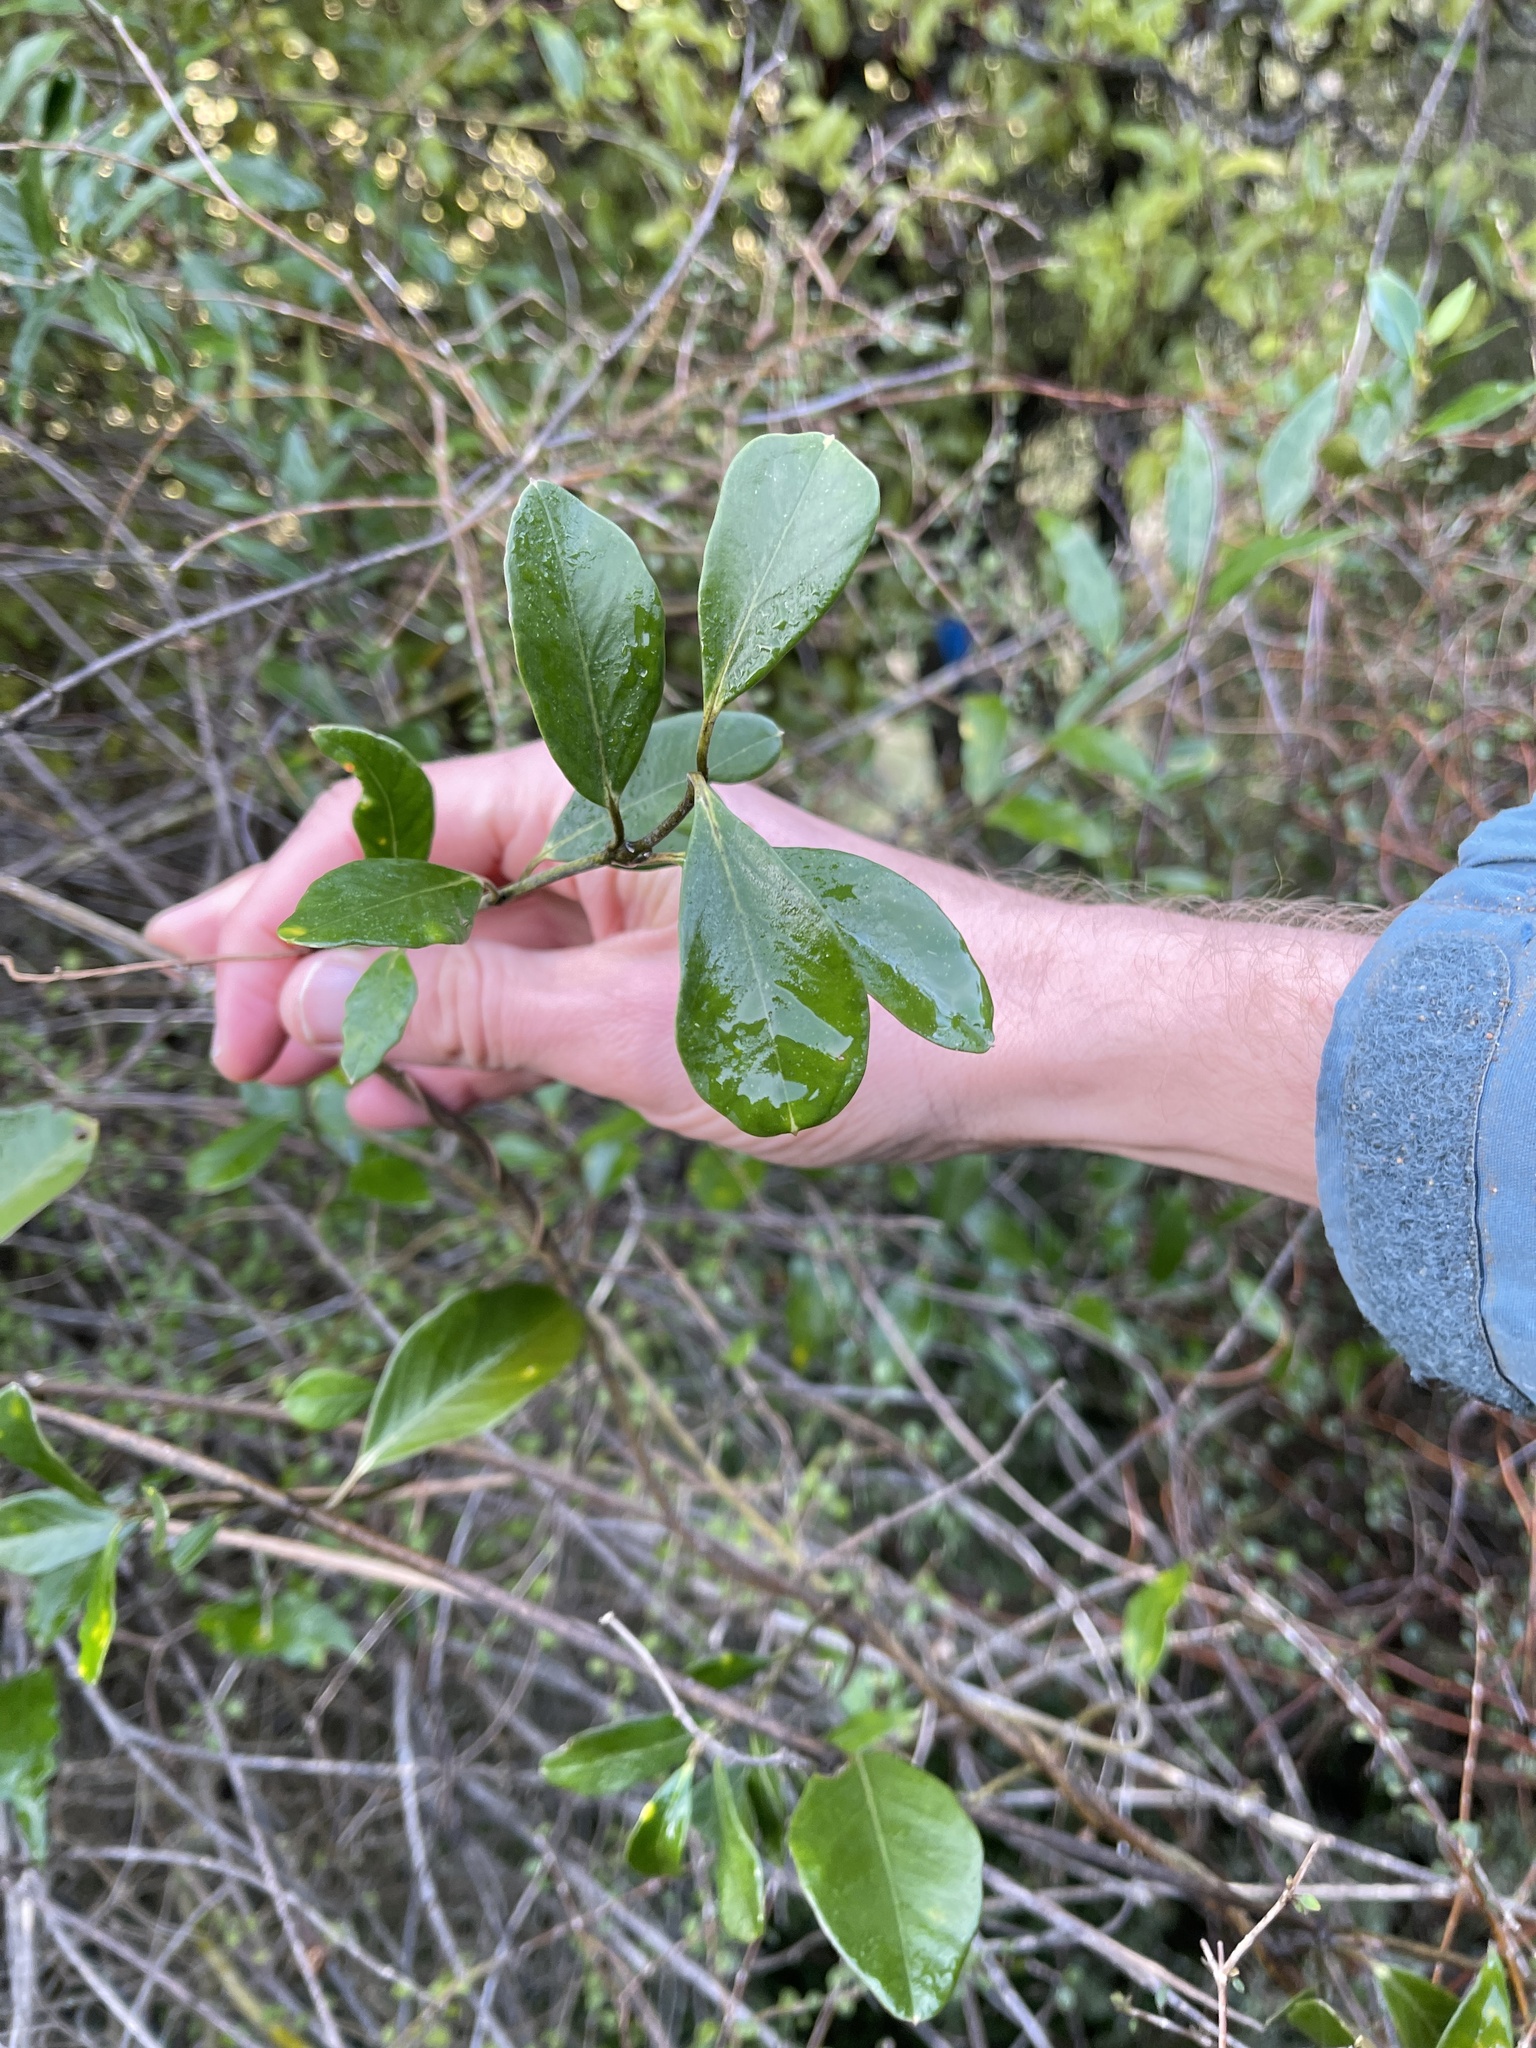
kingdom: Plantae
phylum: Tracheophyta
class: Magnoliopsida
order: Gentianales
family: Apocynaceae
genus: Parsonsia
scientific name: Parsonsia heterophylla
